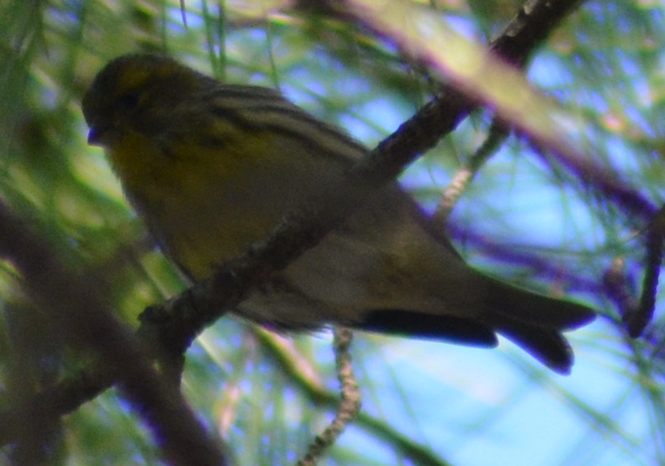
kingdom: Animalia
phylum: Chordata
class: Aves
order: Passeriformes
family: Fringillidae
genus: Serinus
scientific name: Serinus serinus
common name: European serin
